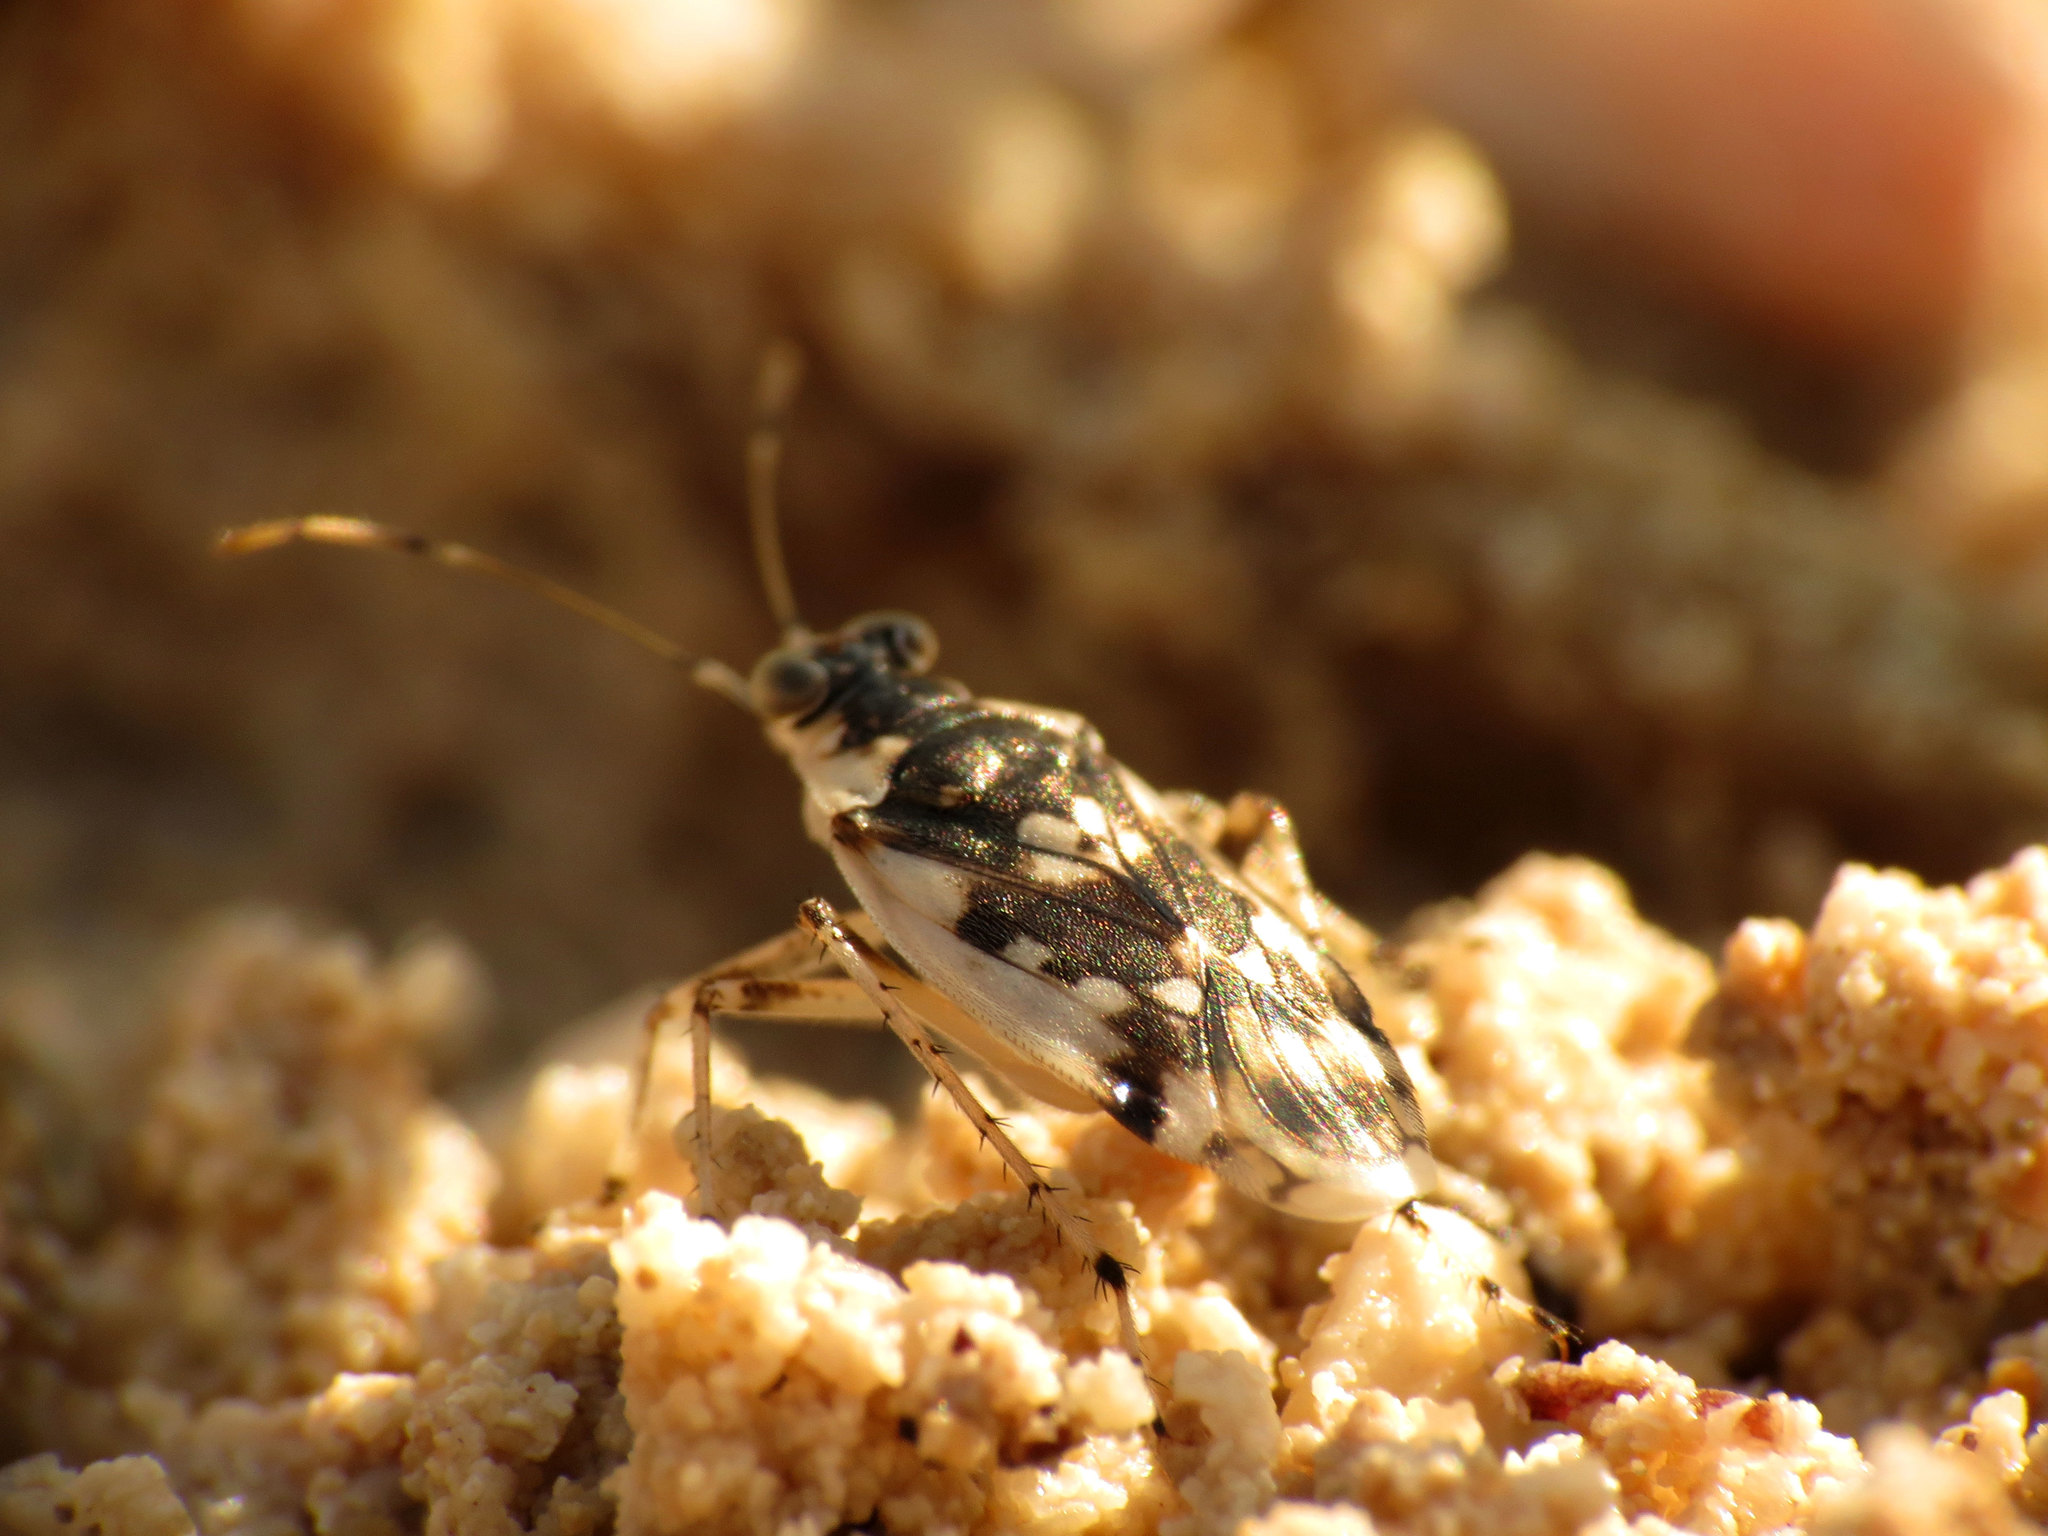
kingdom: Animalia
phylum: Arthropoda
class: Insecta
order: Hemiptera
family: Saldidae
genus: Pentacora
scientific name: Pentacora signoreti
